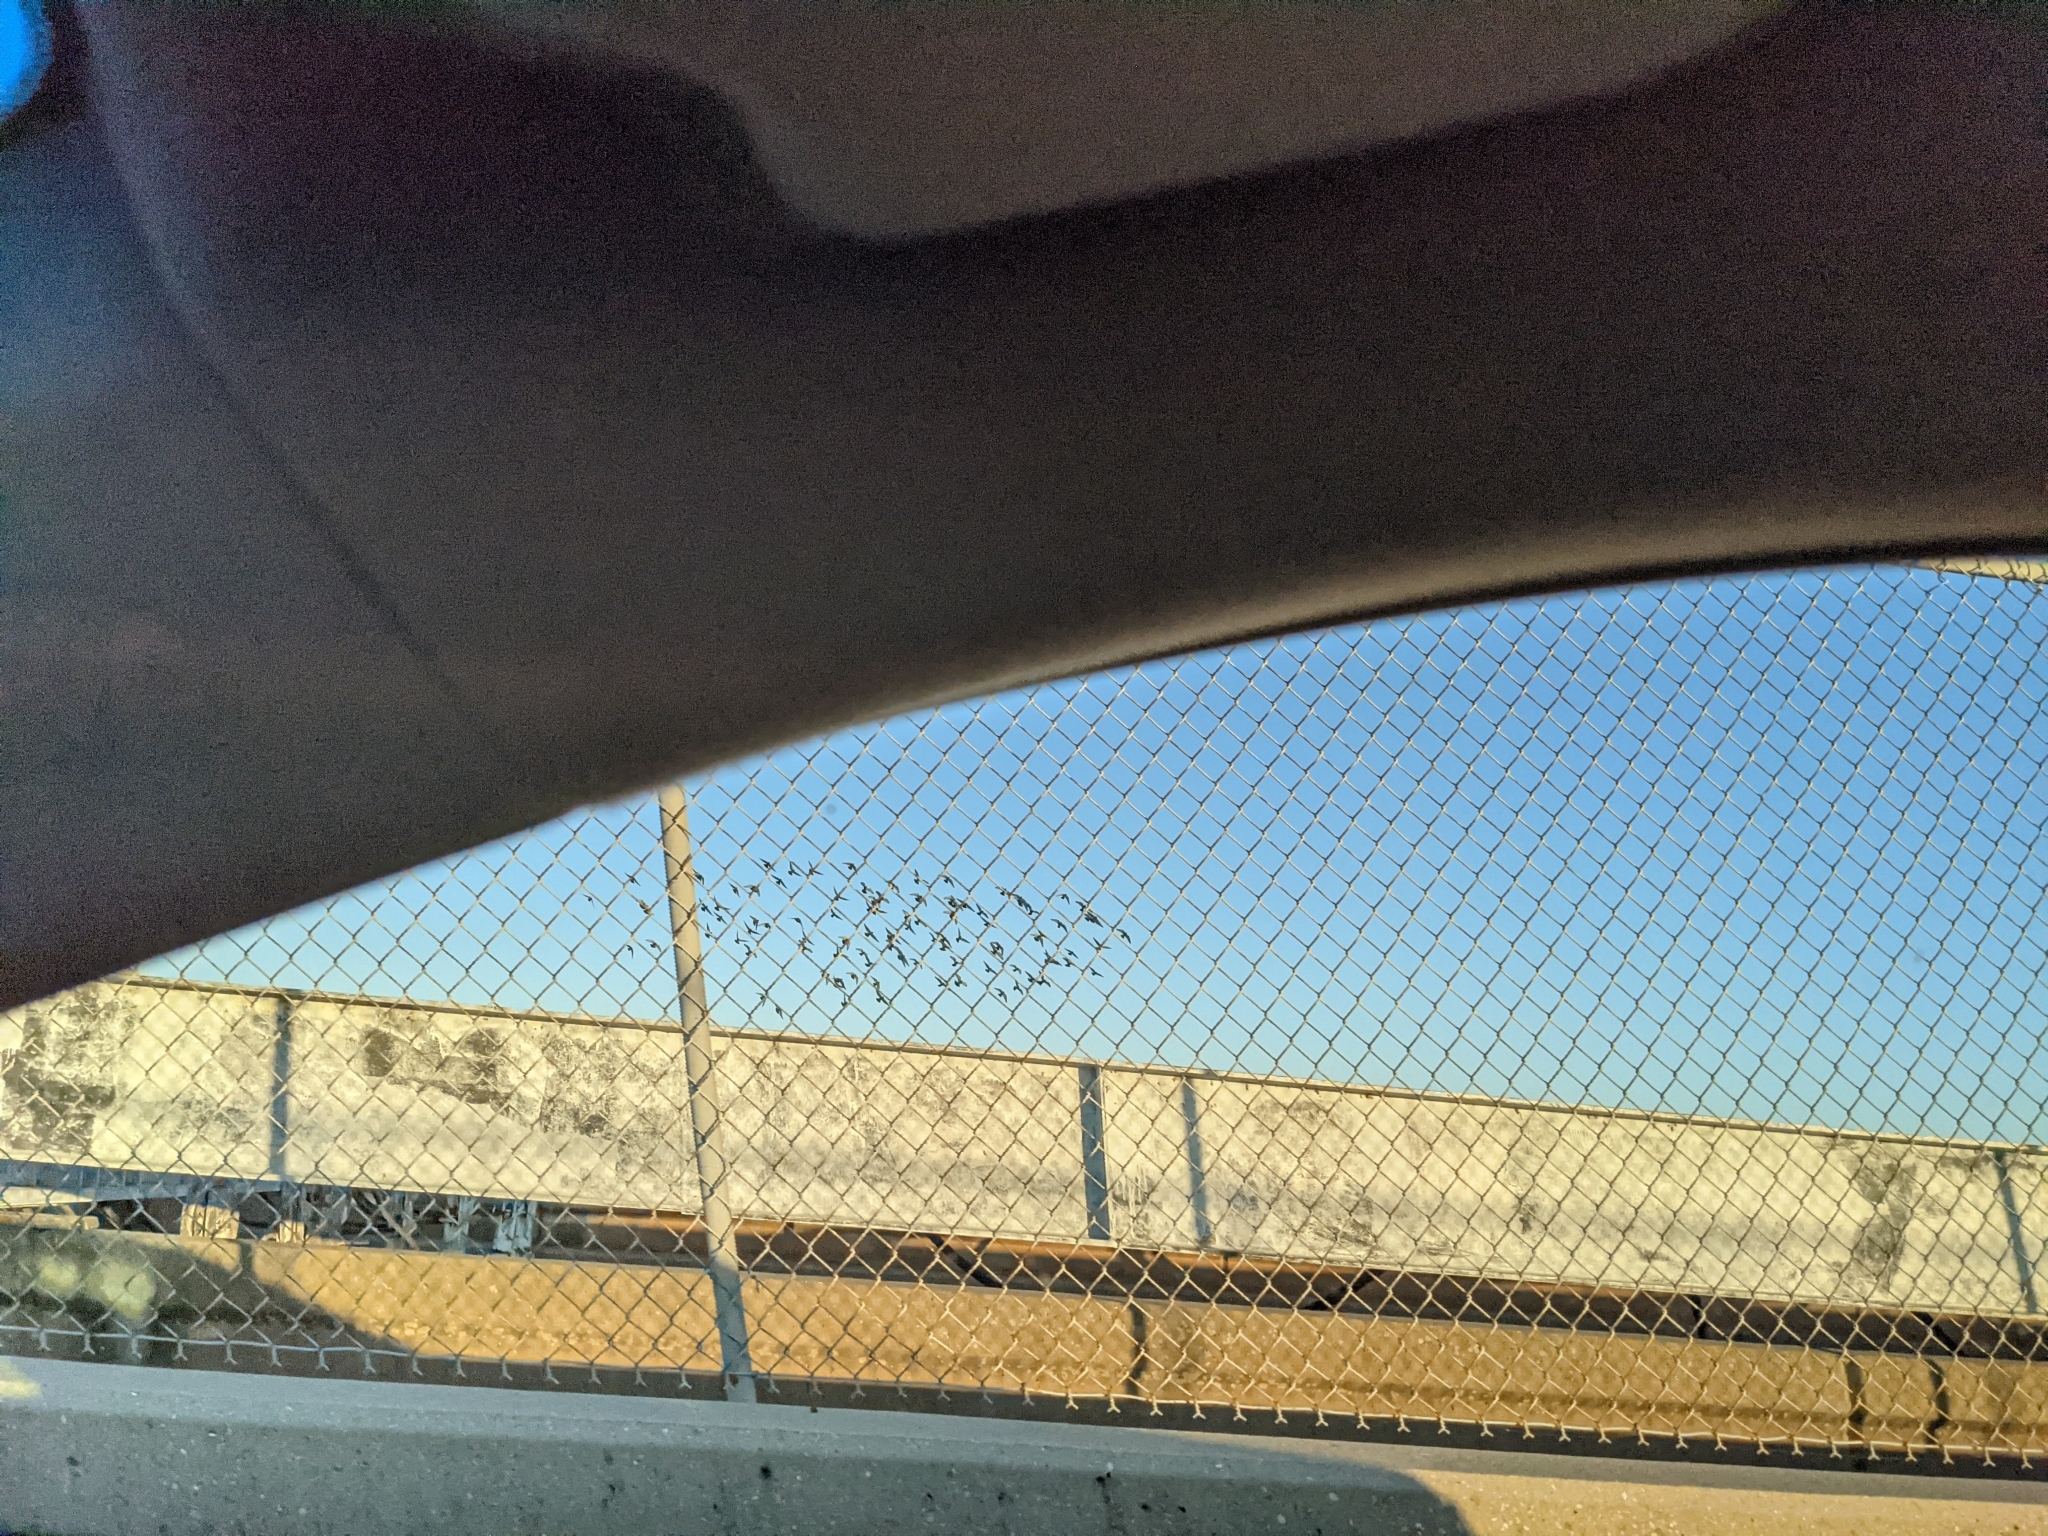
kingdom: Animalia
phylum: Chordata
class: Aves
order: Columbiformes
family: Columbidae
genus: Columba
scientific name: Columba livia
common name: Rock pigeon
